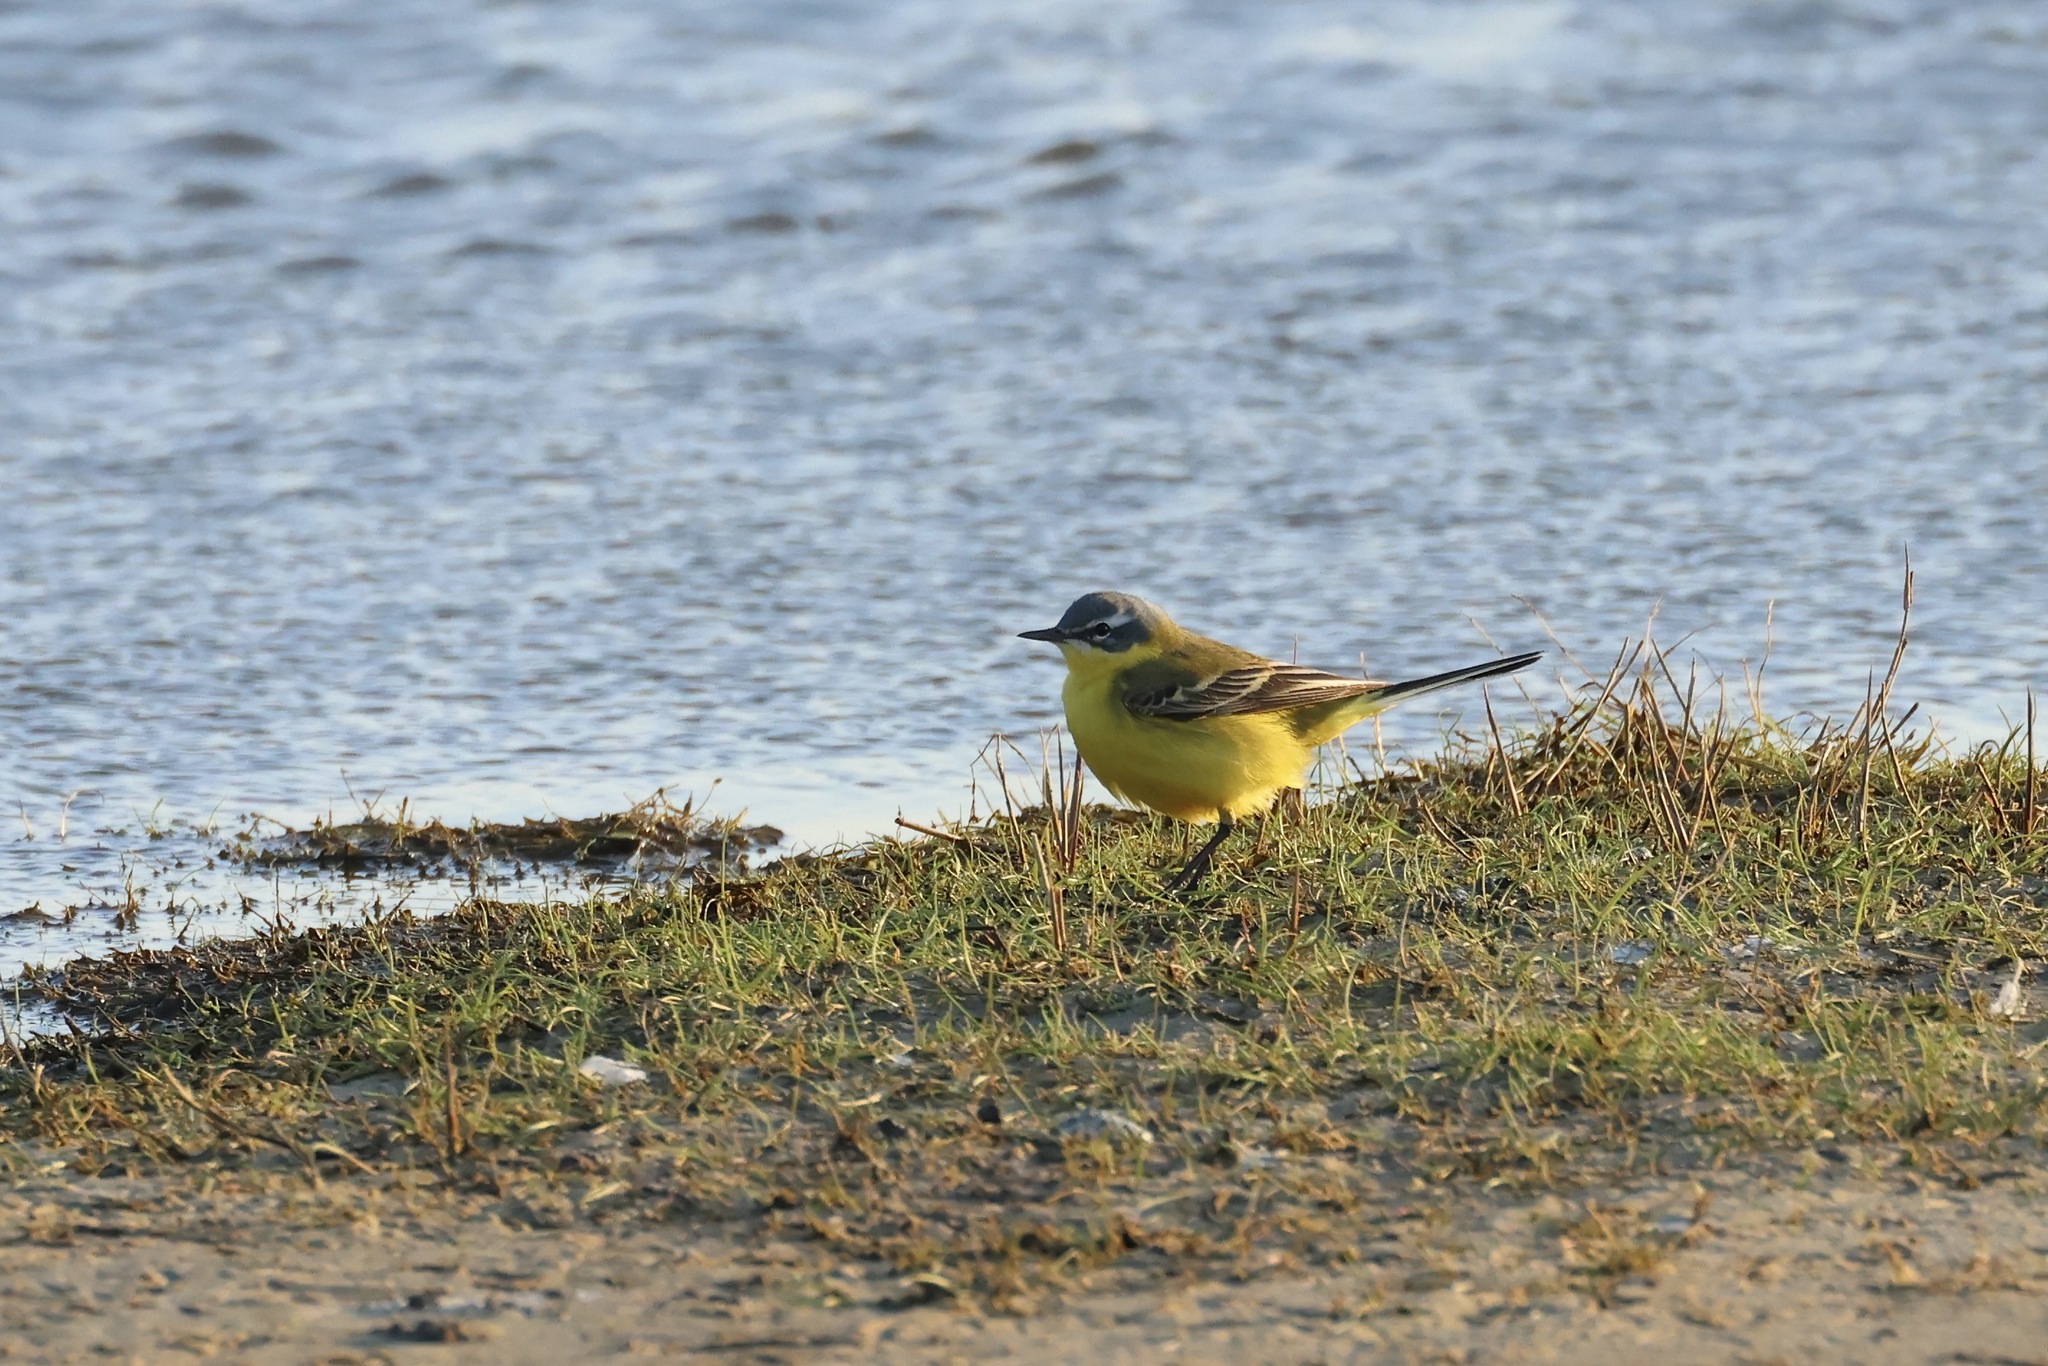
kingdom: Animalia
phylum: Chordata
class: Aves
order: Passeriformes
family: Motacillidae
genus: Motacilla
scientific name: Motacilla flava
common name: Western yellow wagtail
